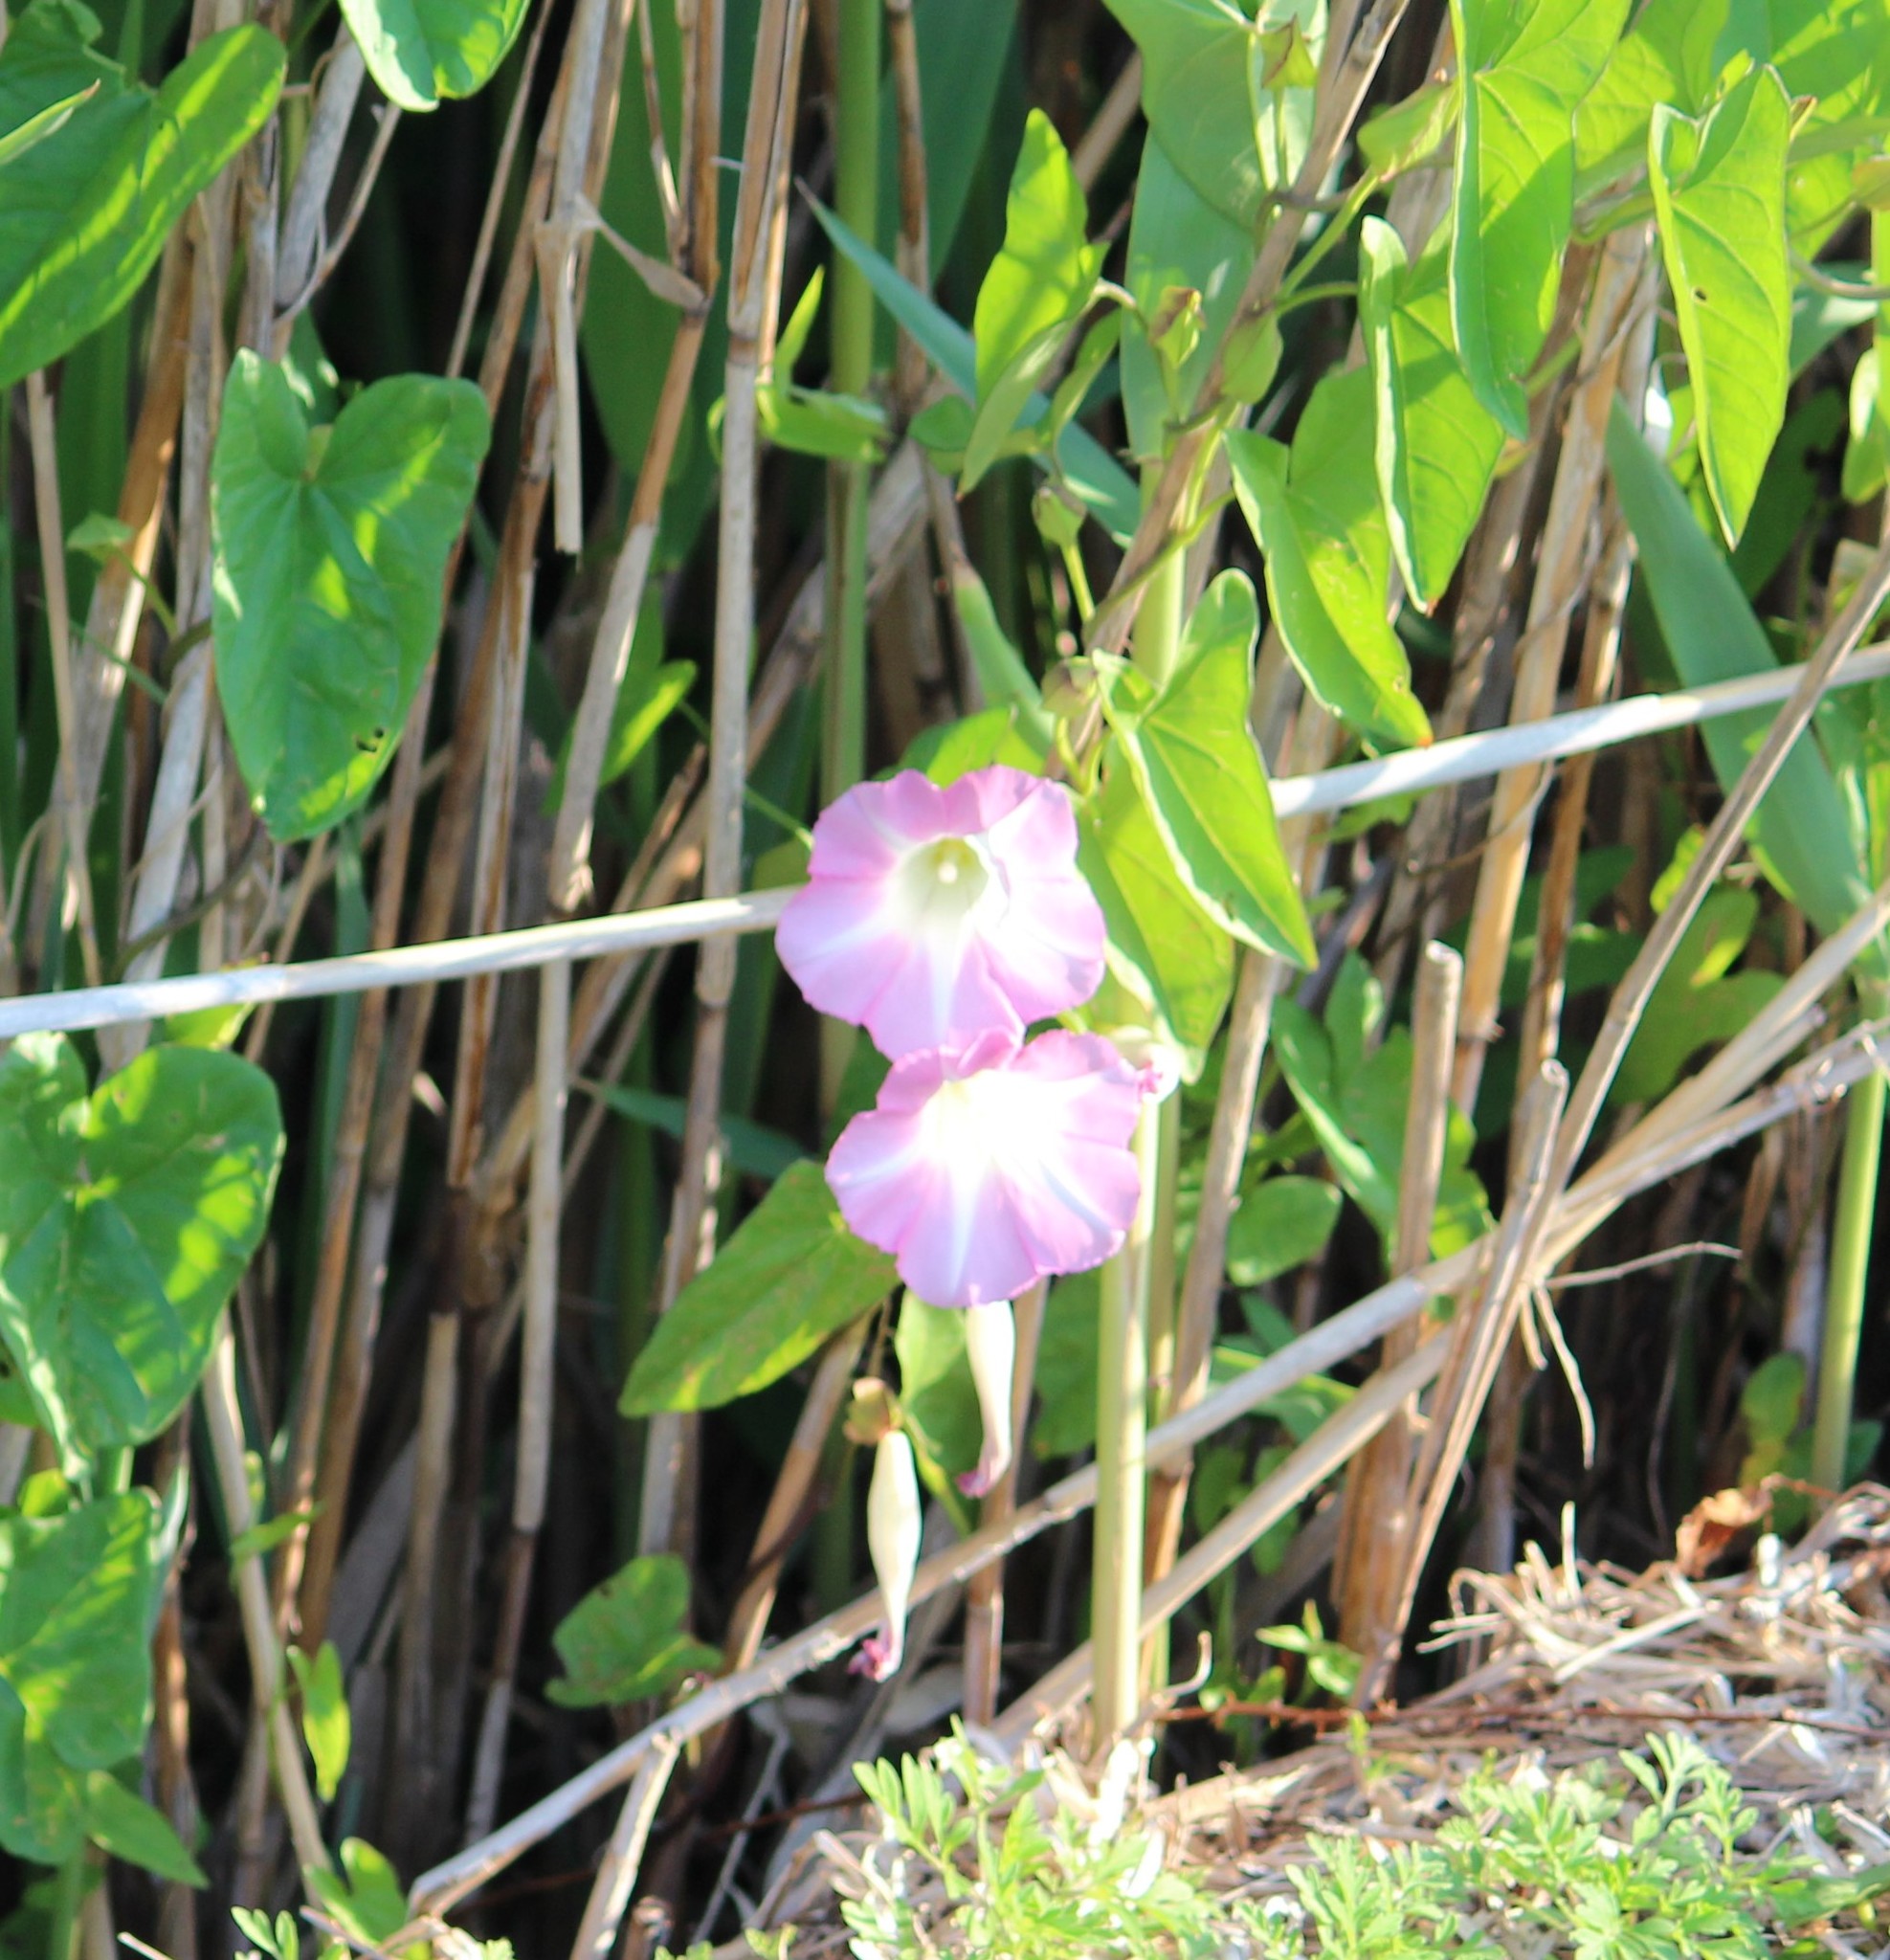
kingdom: Plantae
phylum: Tracheophyta
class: Magnoliopsida
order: Solanales
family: Convolvulaceae
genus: Calystegia
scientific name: Calystegia sepium
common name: Hedge bindweed
